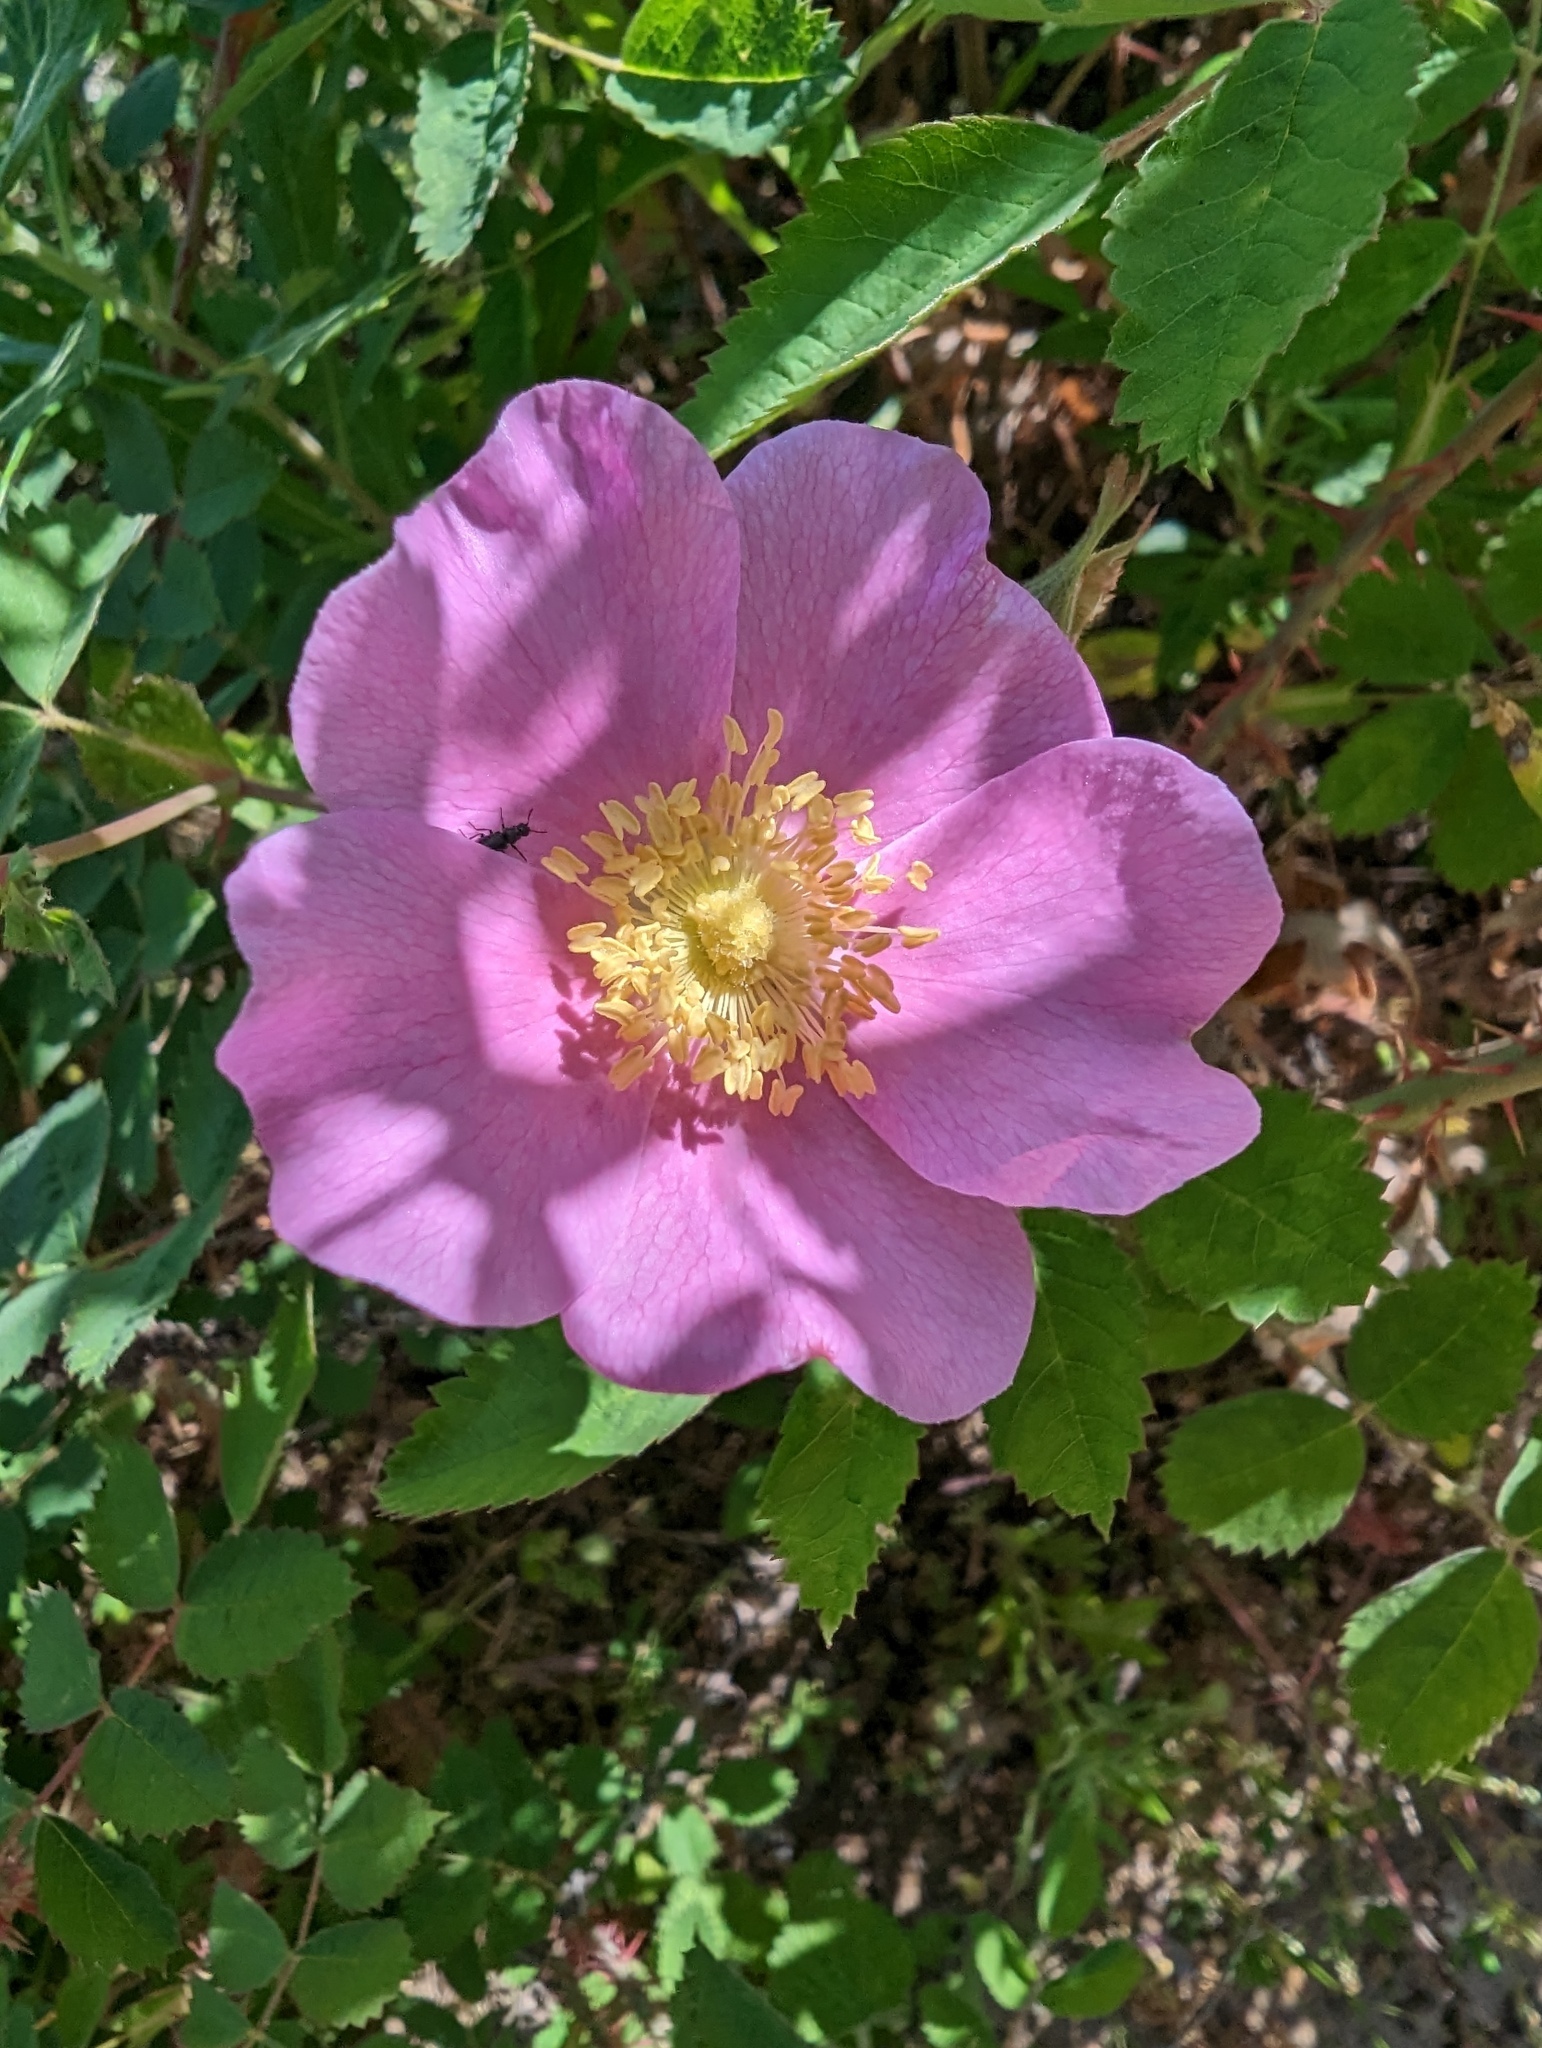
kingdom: Plantae
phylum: Tracheophyta
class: Magnoliopsida
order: Rosales
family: Rosaceae
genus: Rosa
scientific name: Rosa californica
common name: California rose
